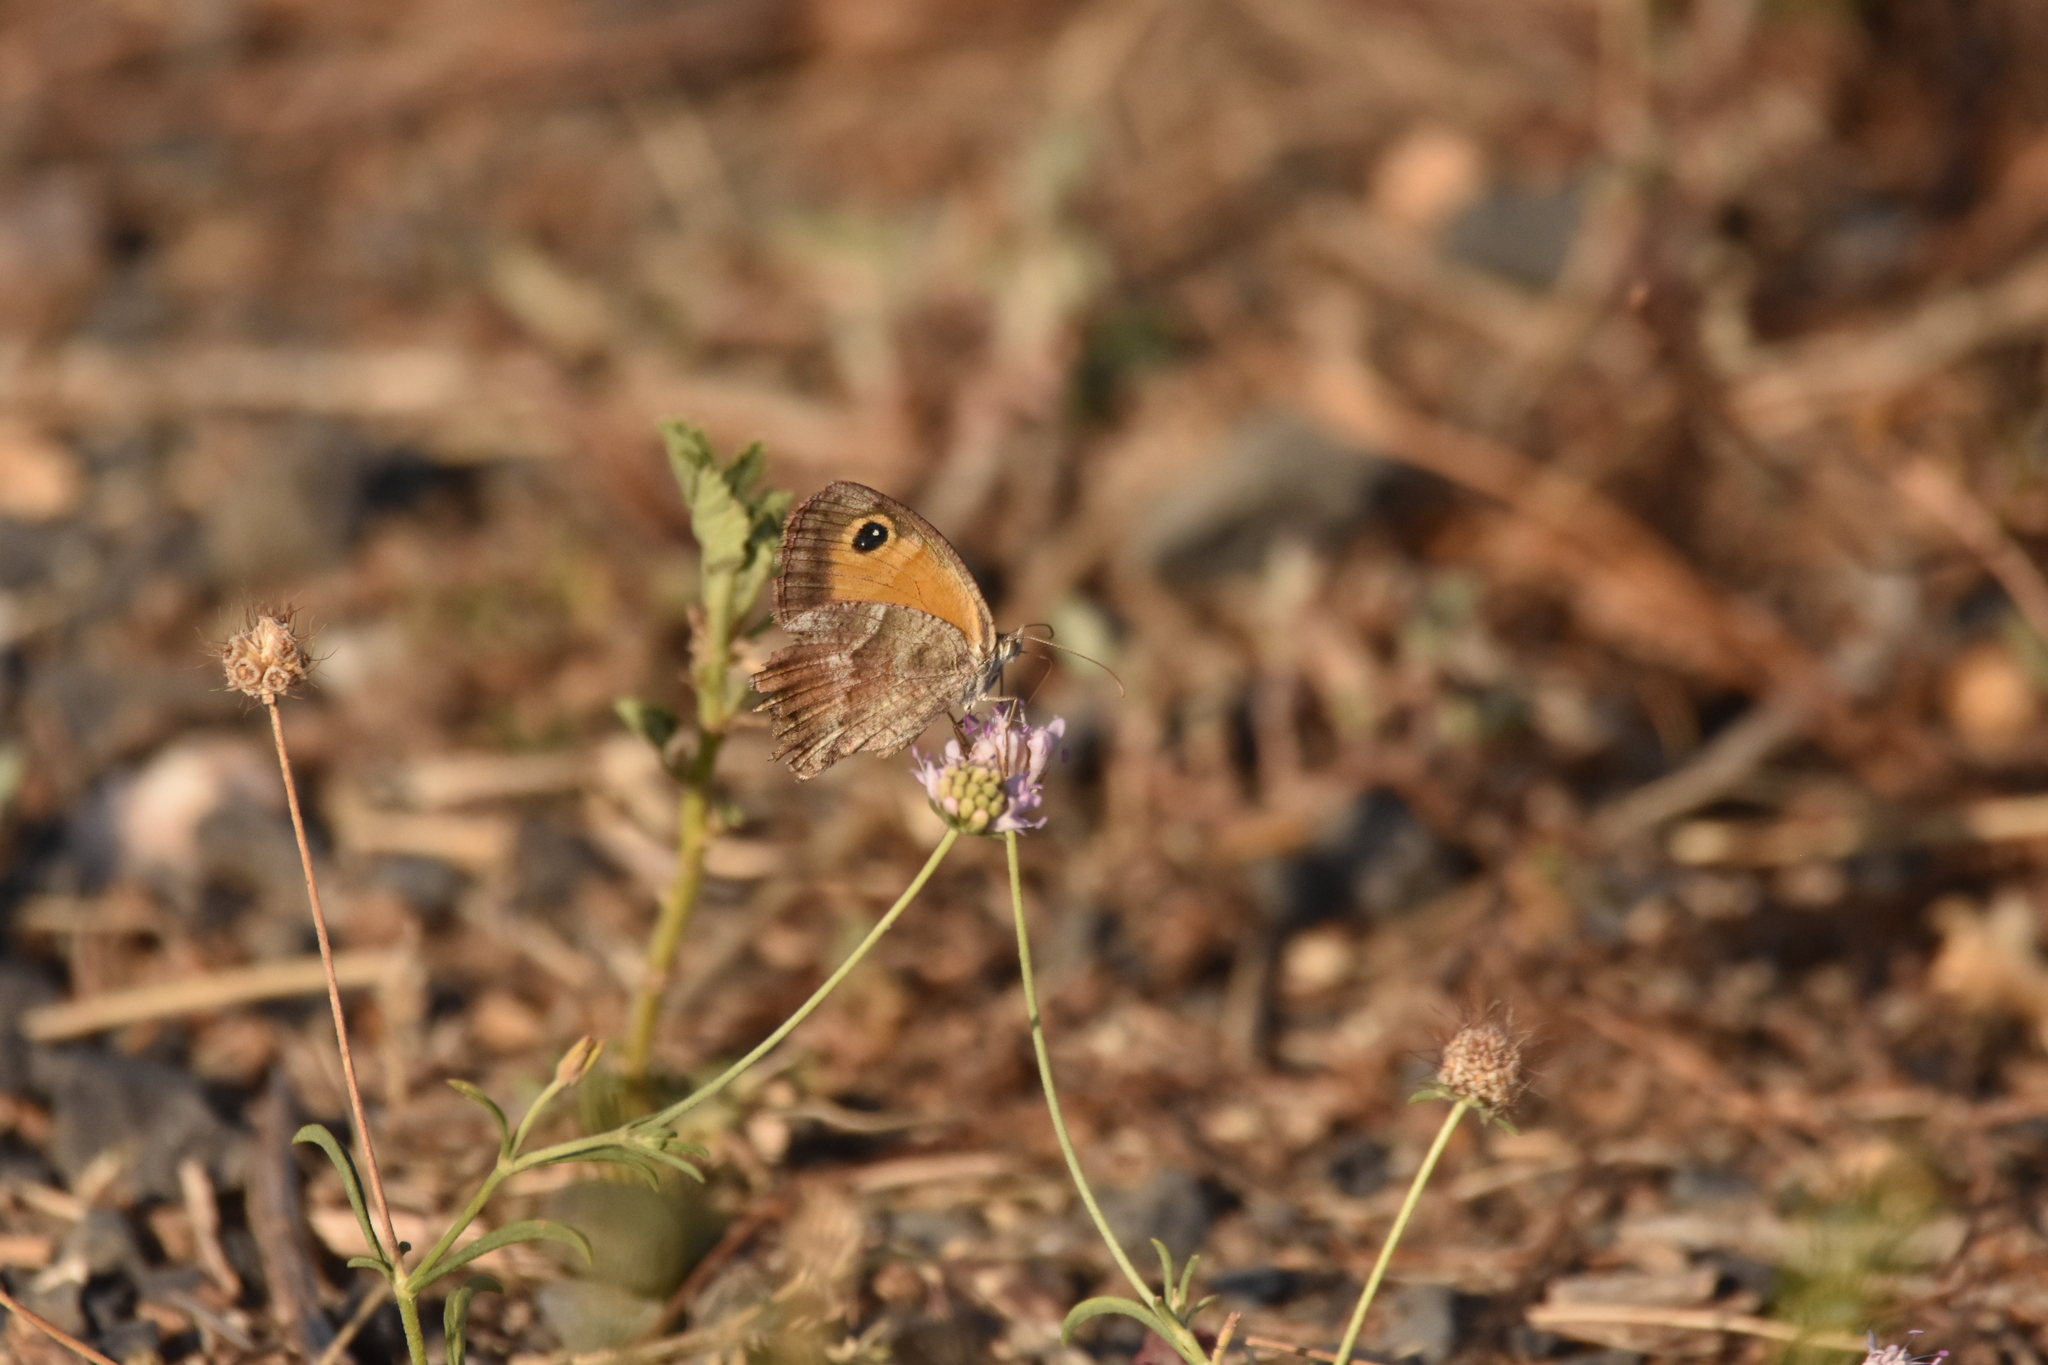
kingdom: Animalia
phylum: Arthropoda
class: Insecta
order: Lepidoptera
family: Nymphalidae
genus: Pyronia
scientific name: Pyronia cecilia
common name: Southern gatekeeper
